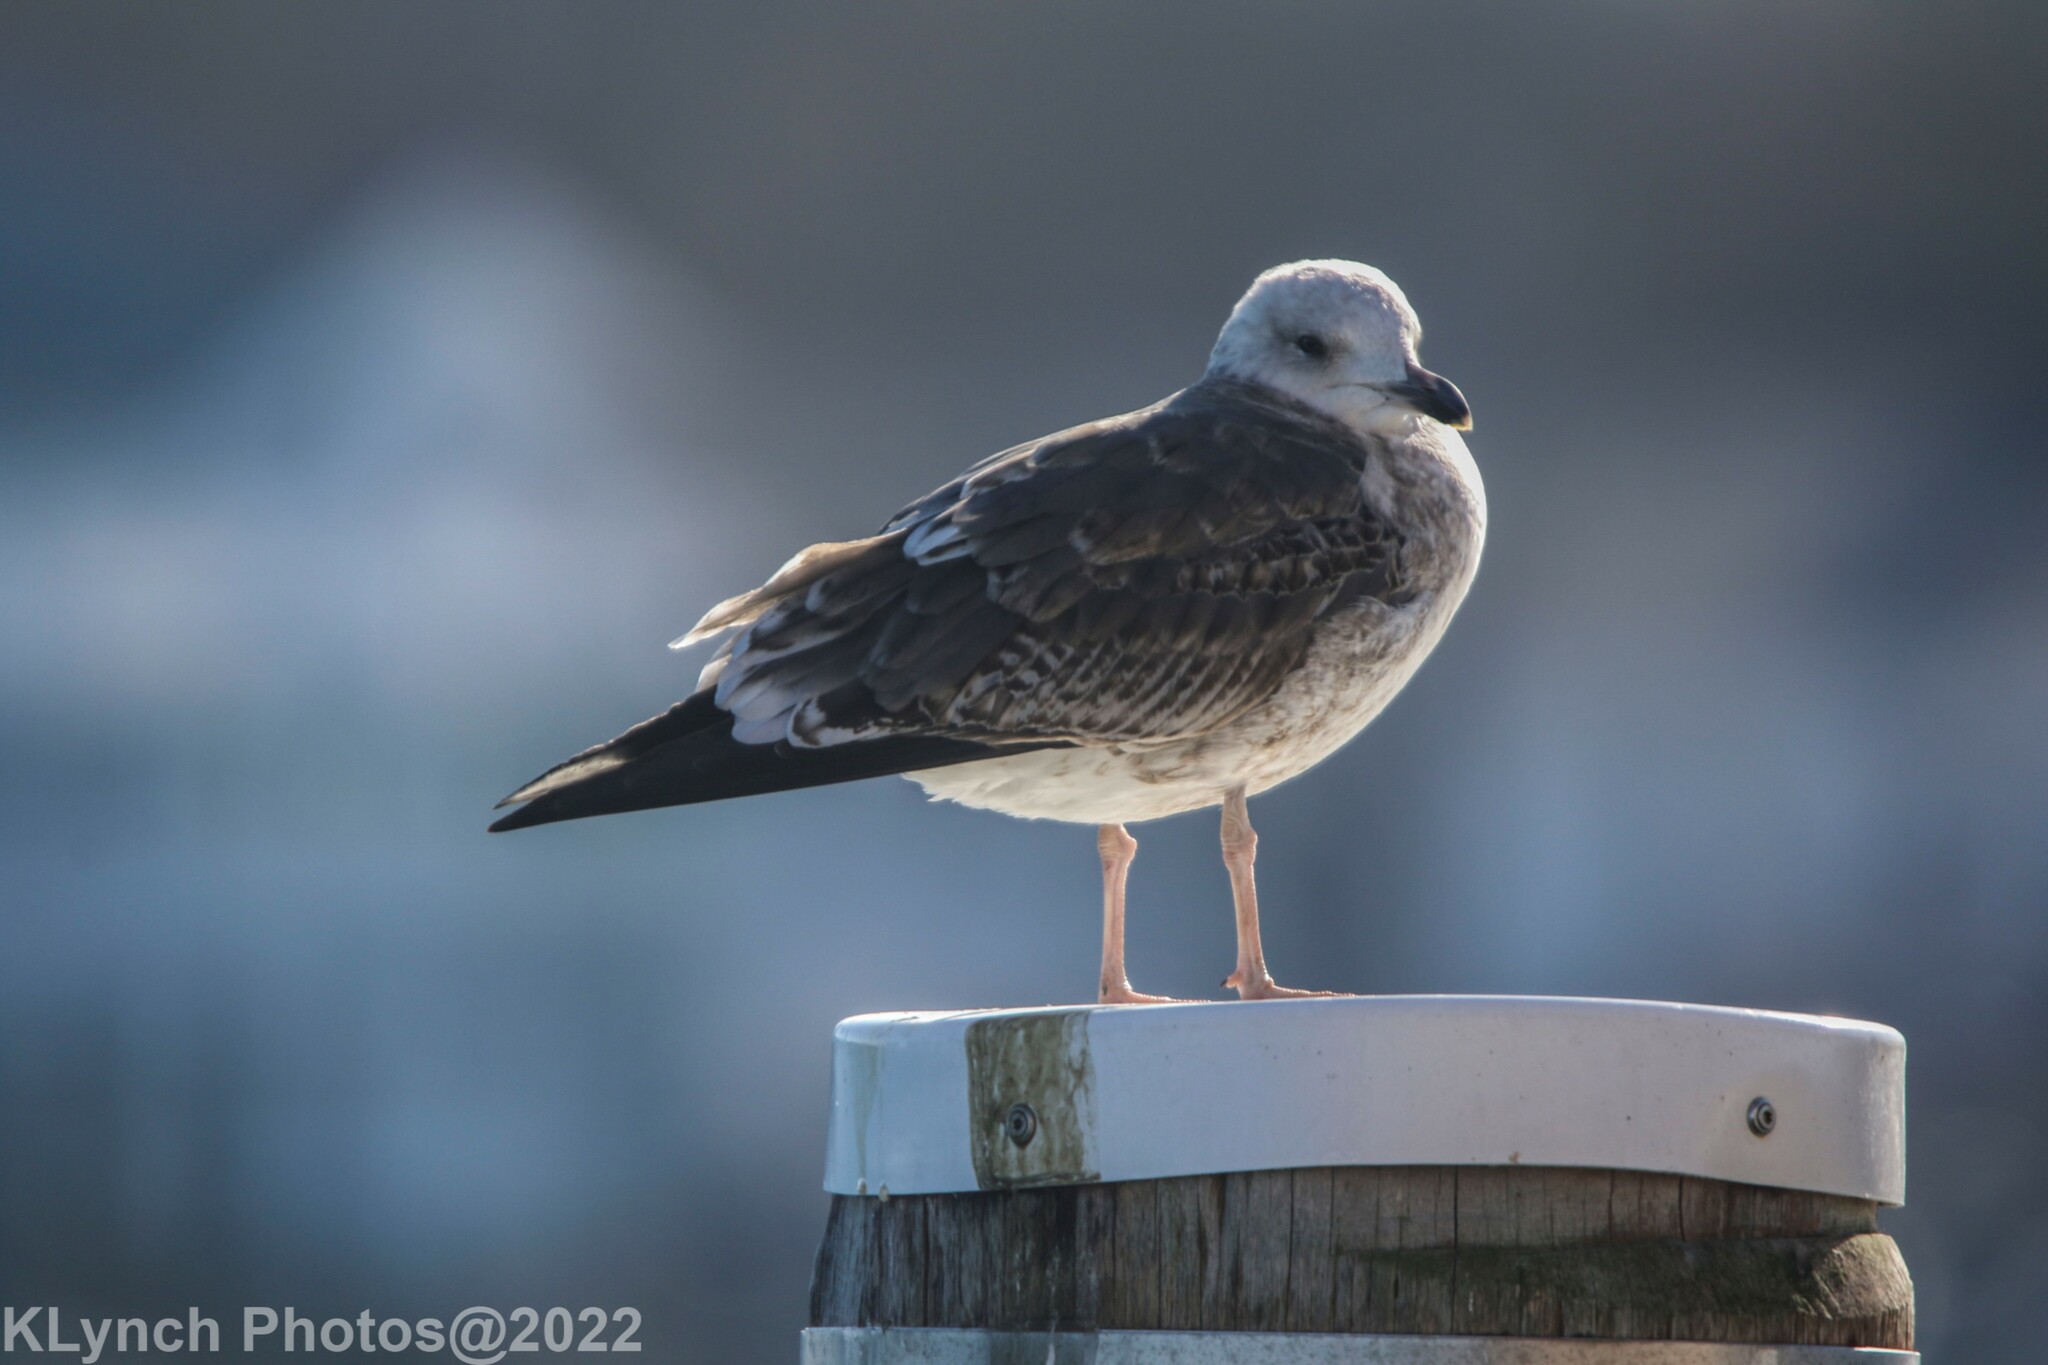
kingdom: Animalia
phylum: Chordata
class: Aves
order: Charadriiformes
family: Laridae
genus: Larus
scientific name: Larus fuscus
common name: Lesser black-backed gull
